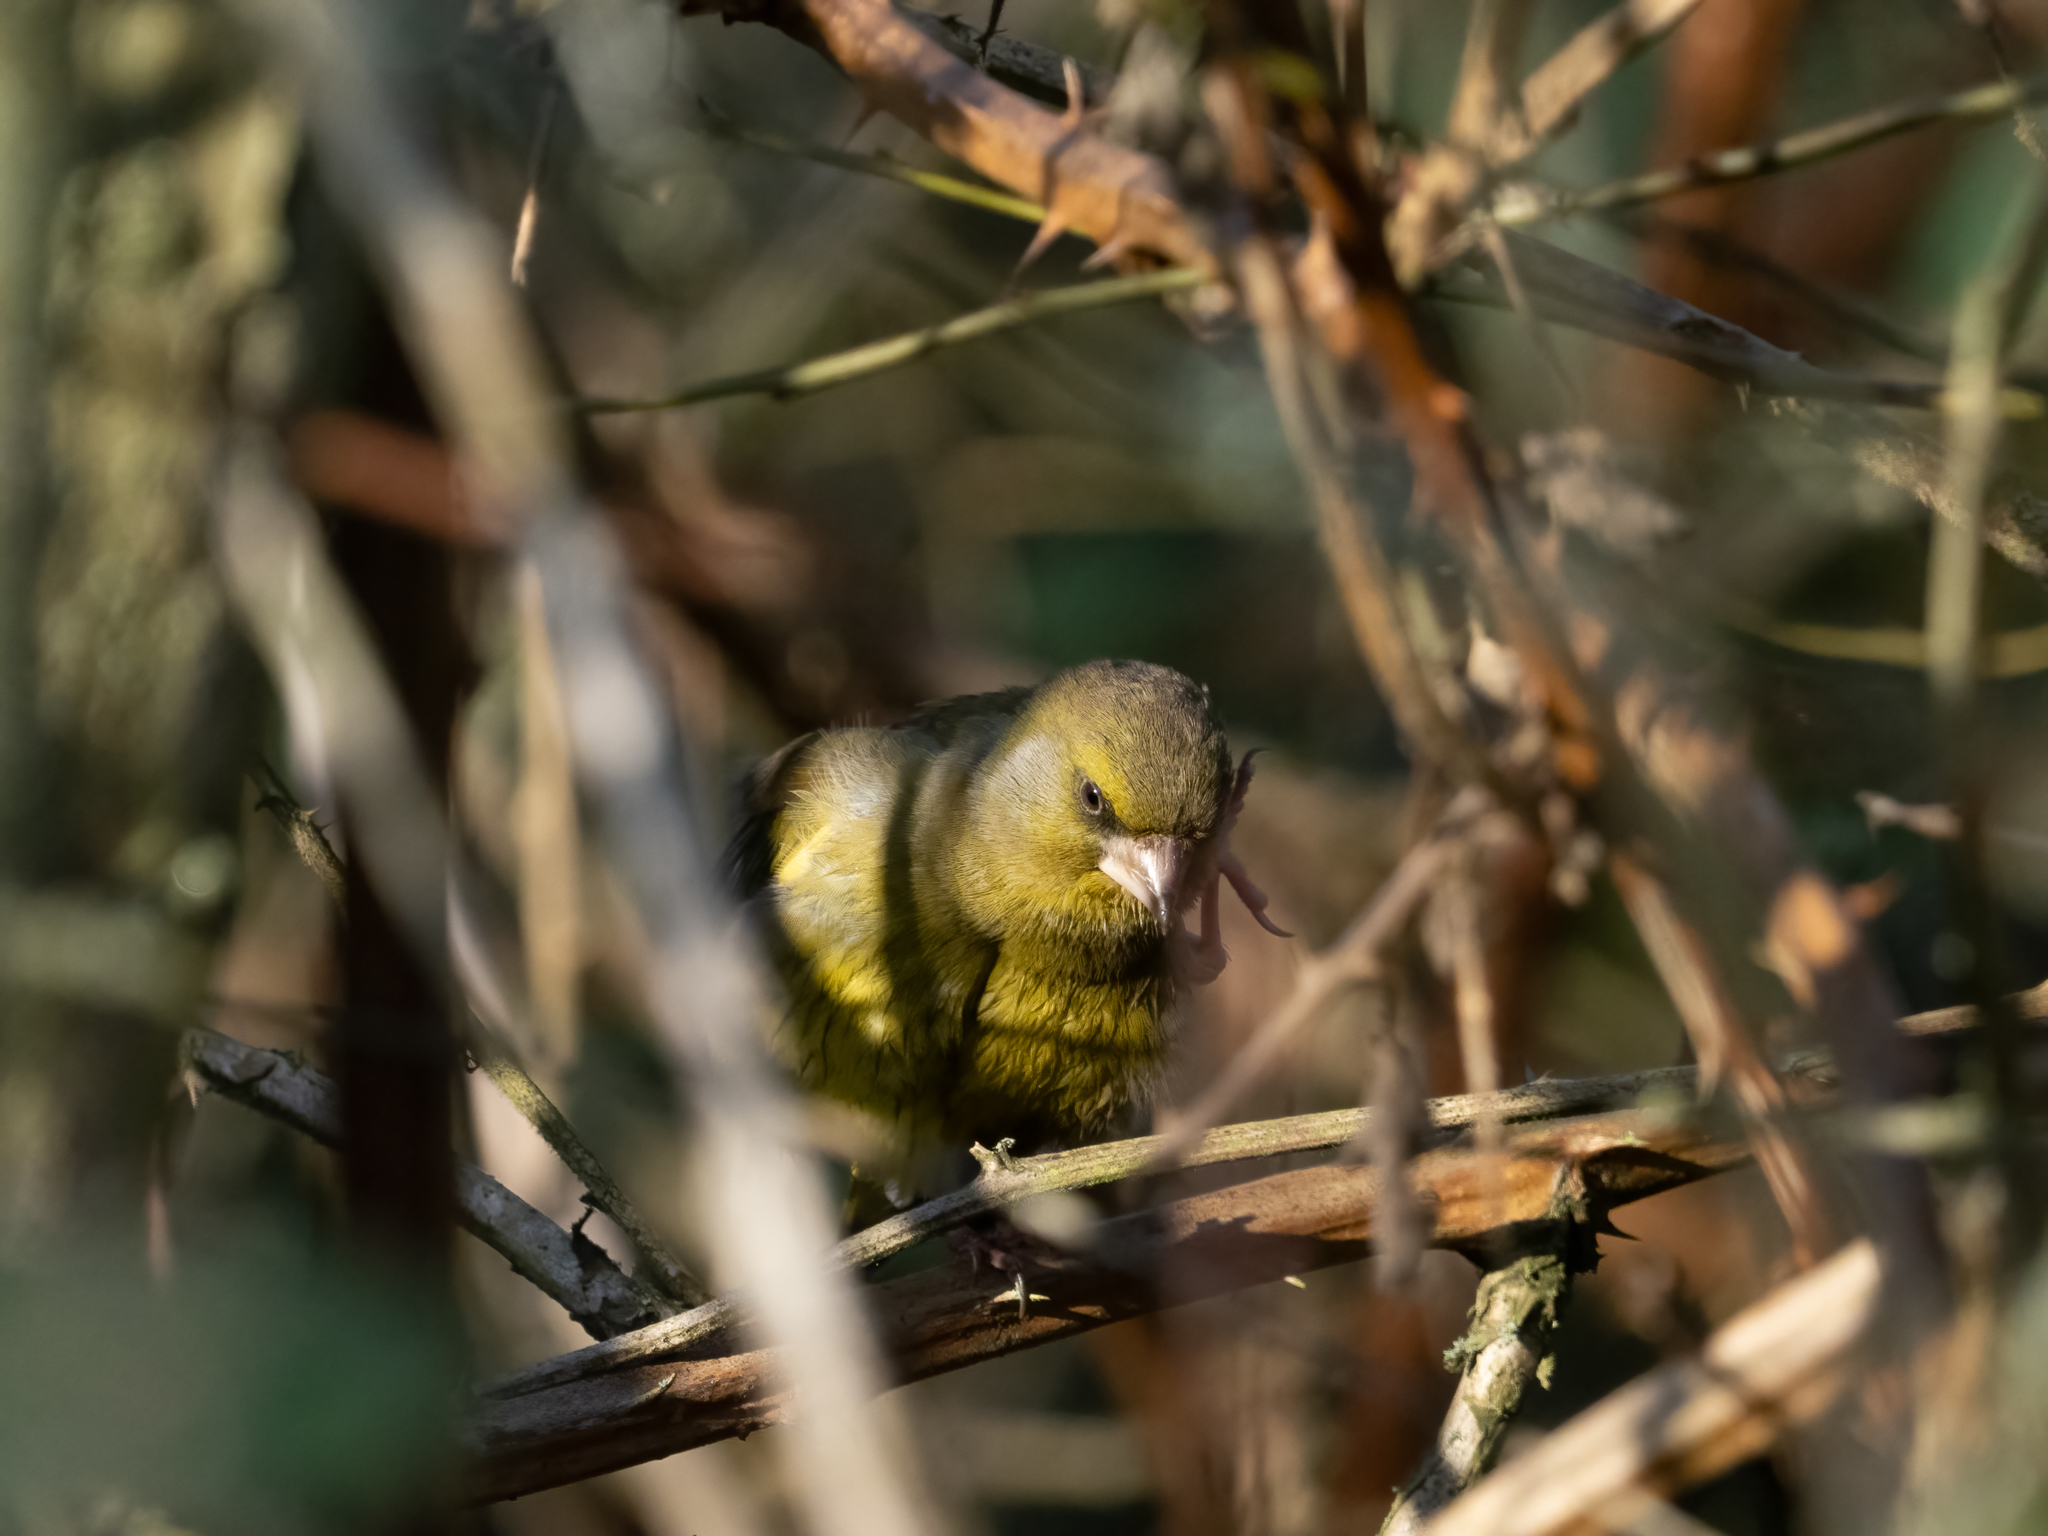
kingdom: Plantae
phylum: Tracheophyta
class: Liliopsida
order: Poales
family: Poaceae
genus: Chloris
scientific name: Chloris chloris
